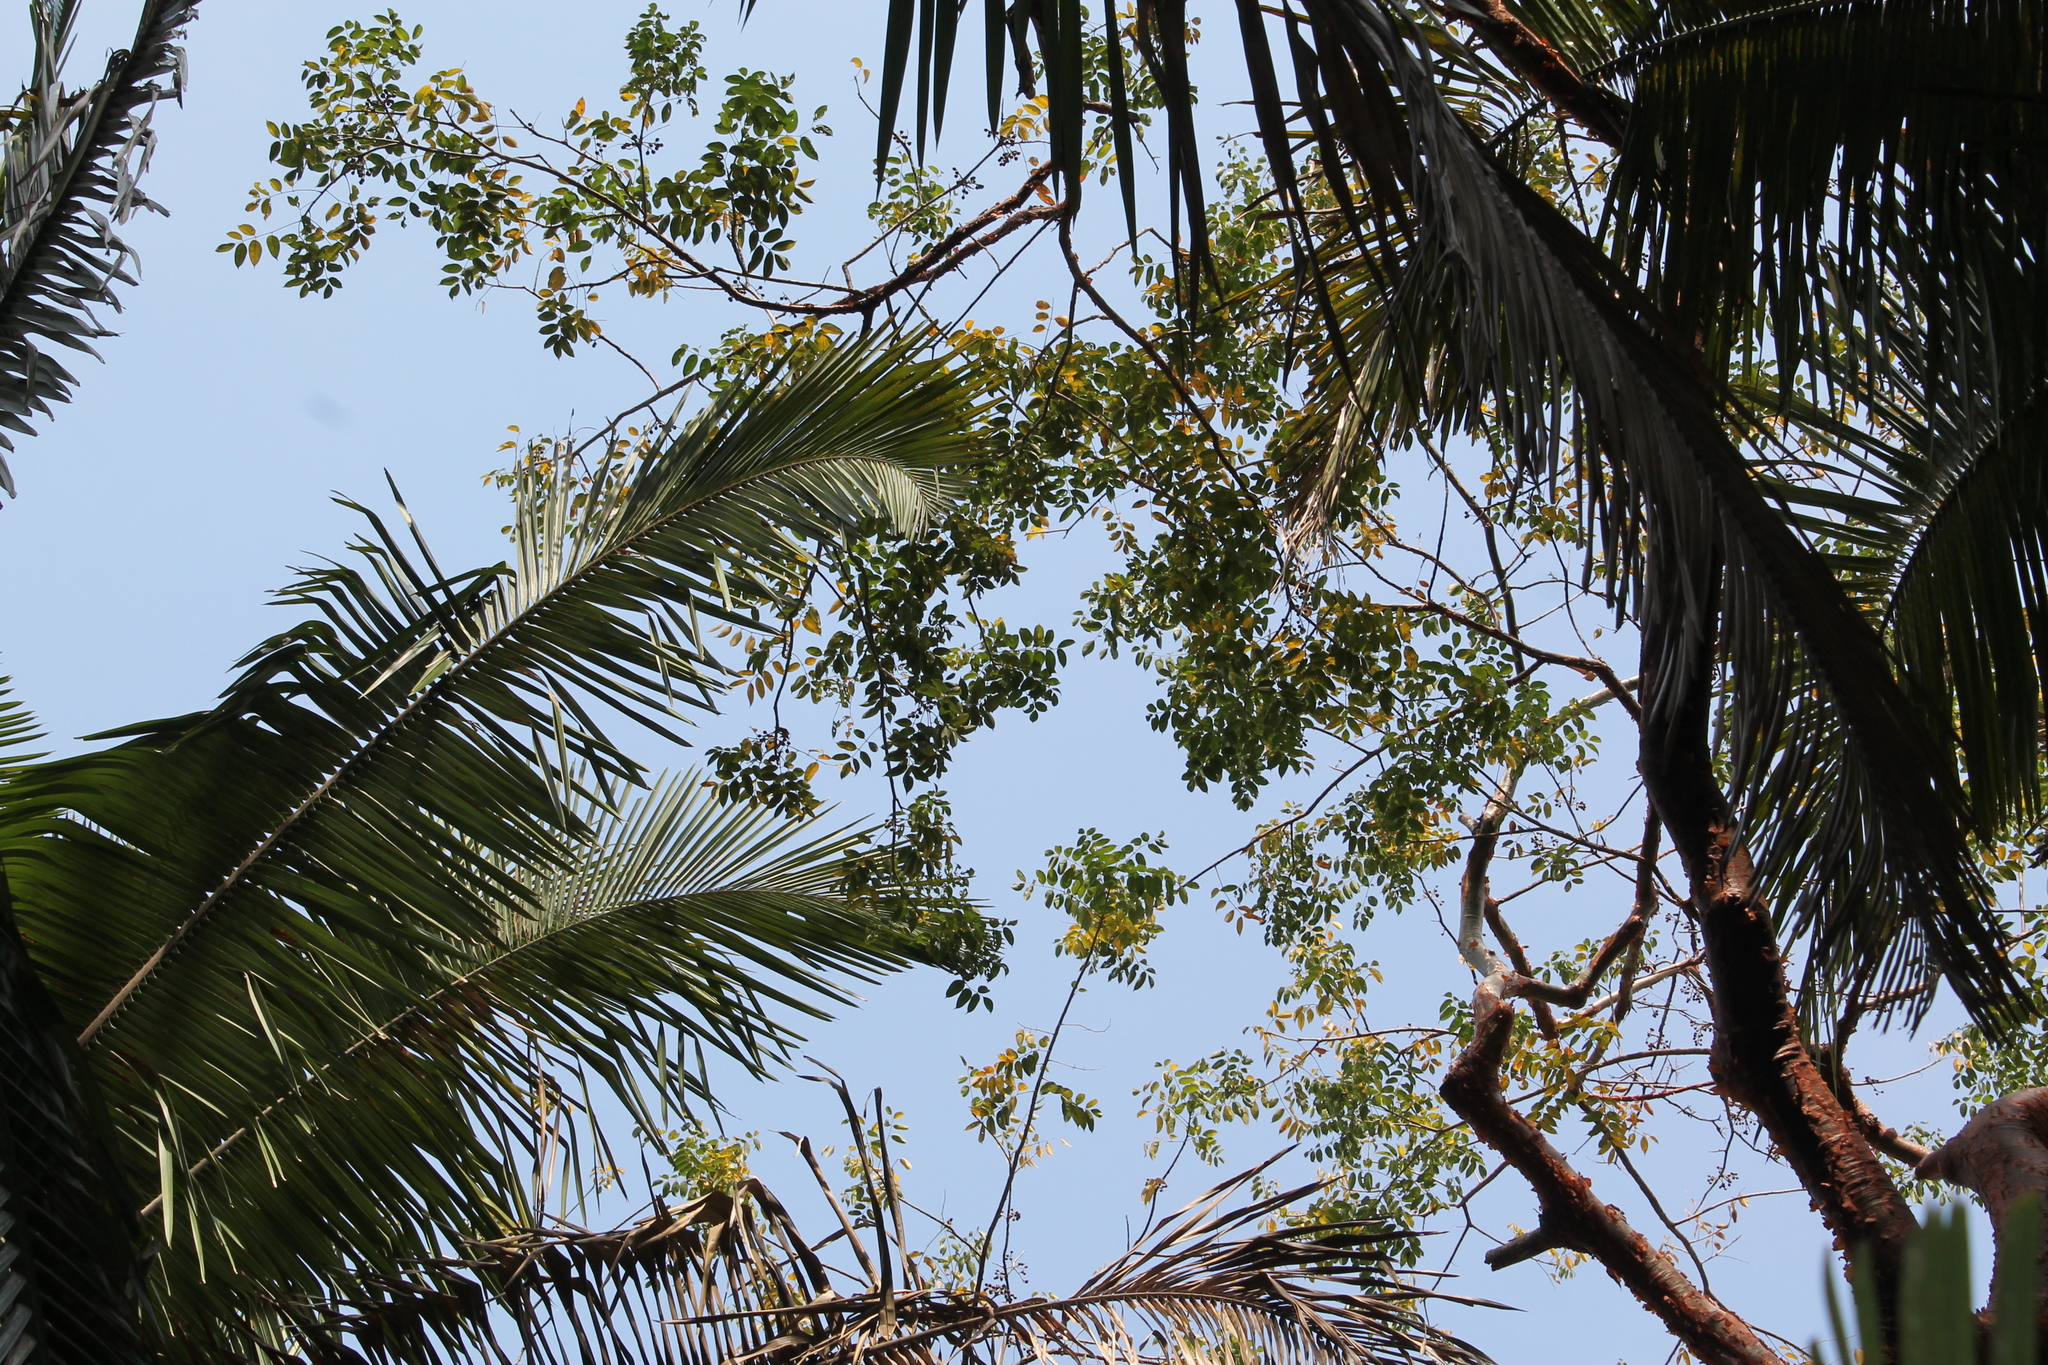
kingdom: Plantae
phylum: Tracheophyta
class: Magnoliopsida
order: Sapindales
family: Burseraceae
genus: Bursera
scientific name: Bursera simaruba
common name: Turpentine tree
